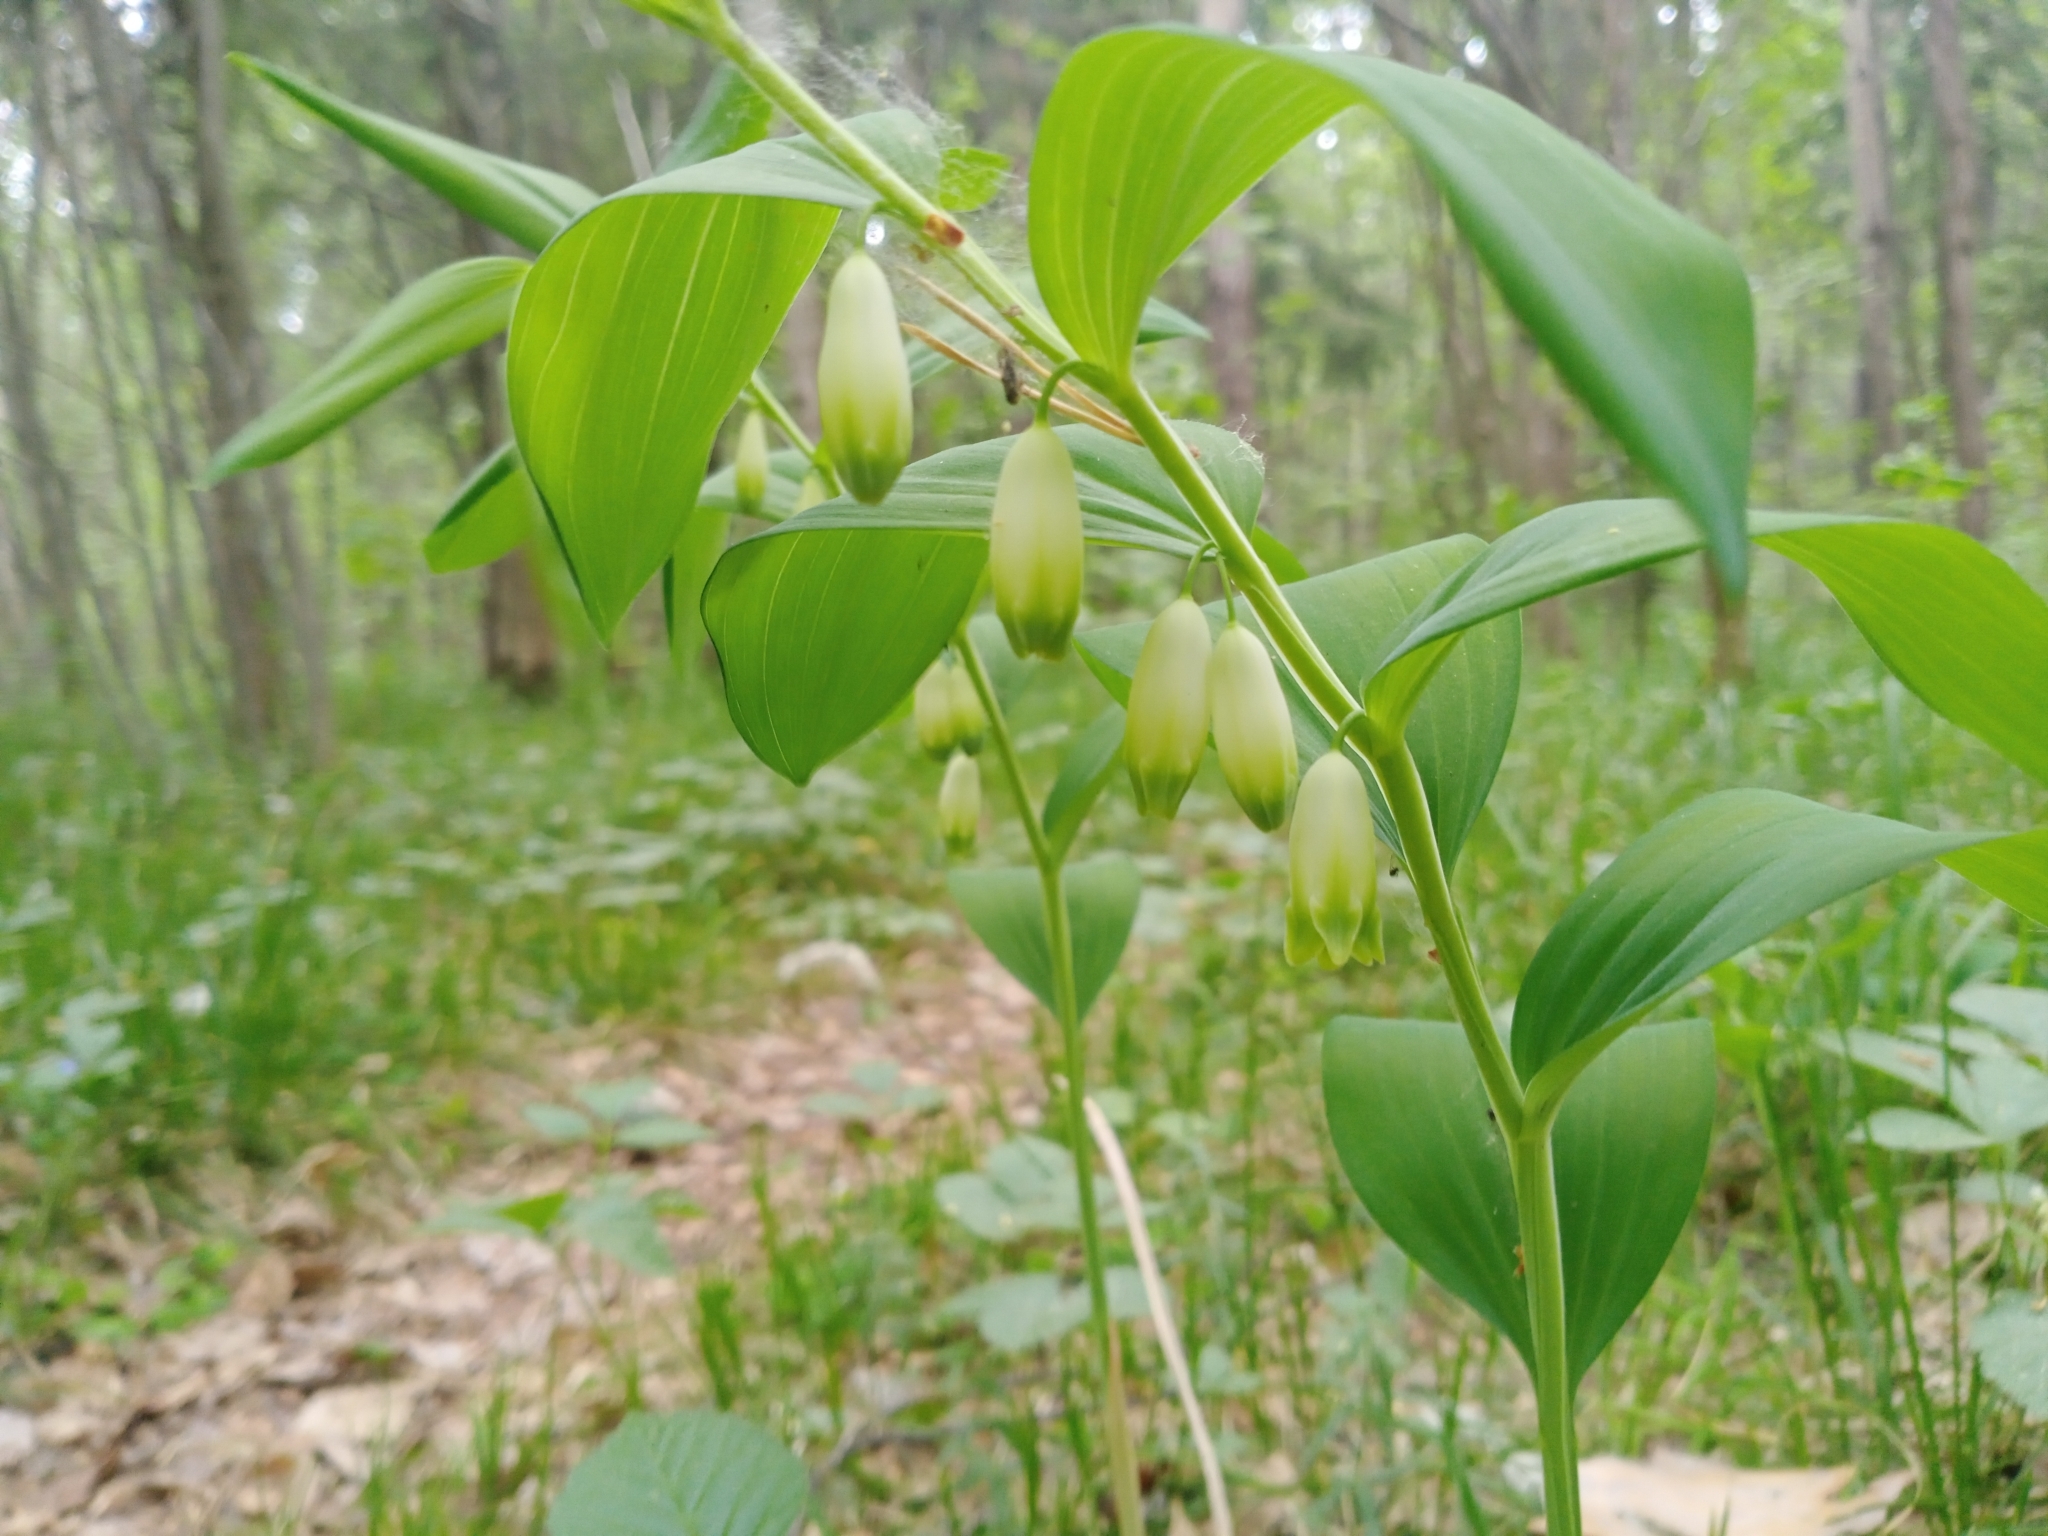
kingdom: Plantae
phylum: Tracheophyta
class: Liliopsida
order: Asparagales
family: Asparagaceae
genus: Polygonatum
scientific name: Polygonatum odoratum
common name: Angular solomon's-seal
